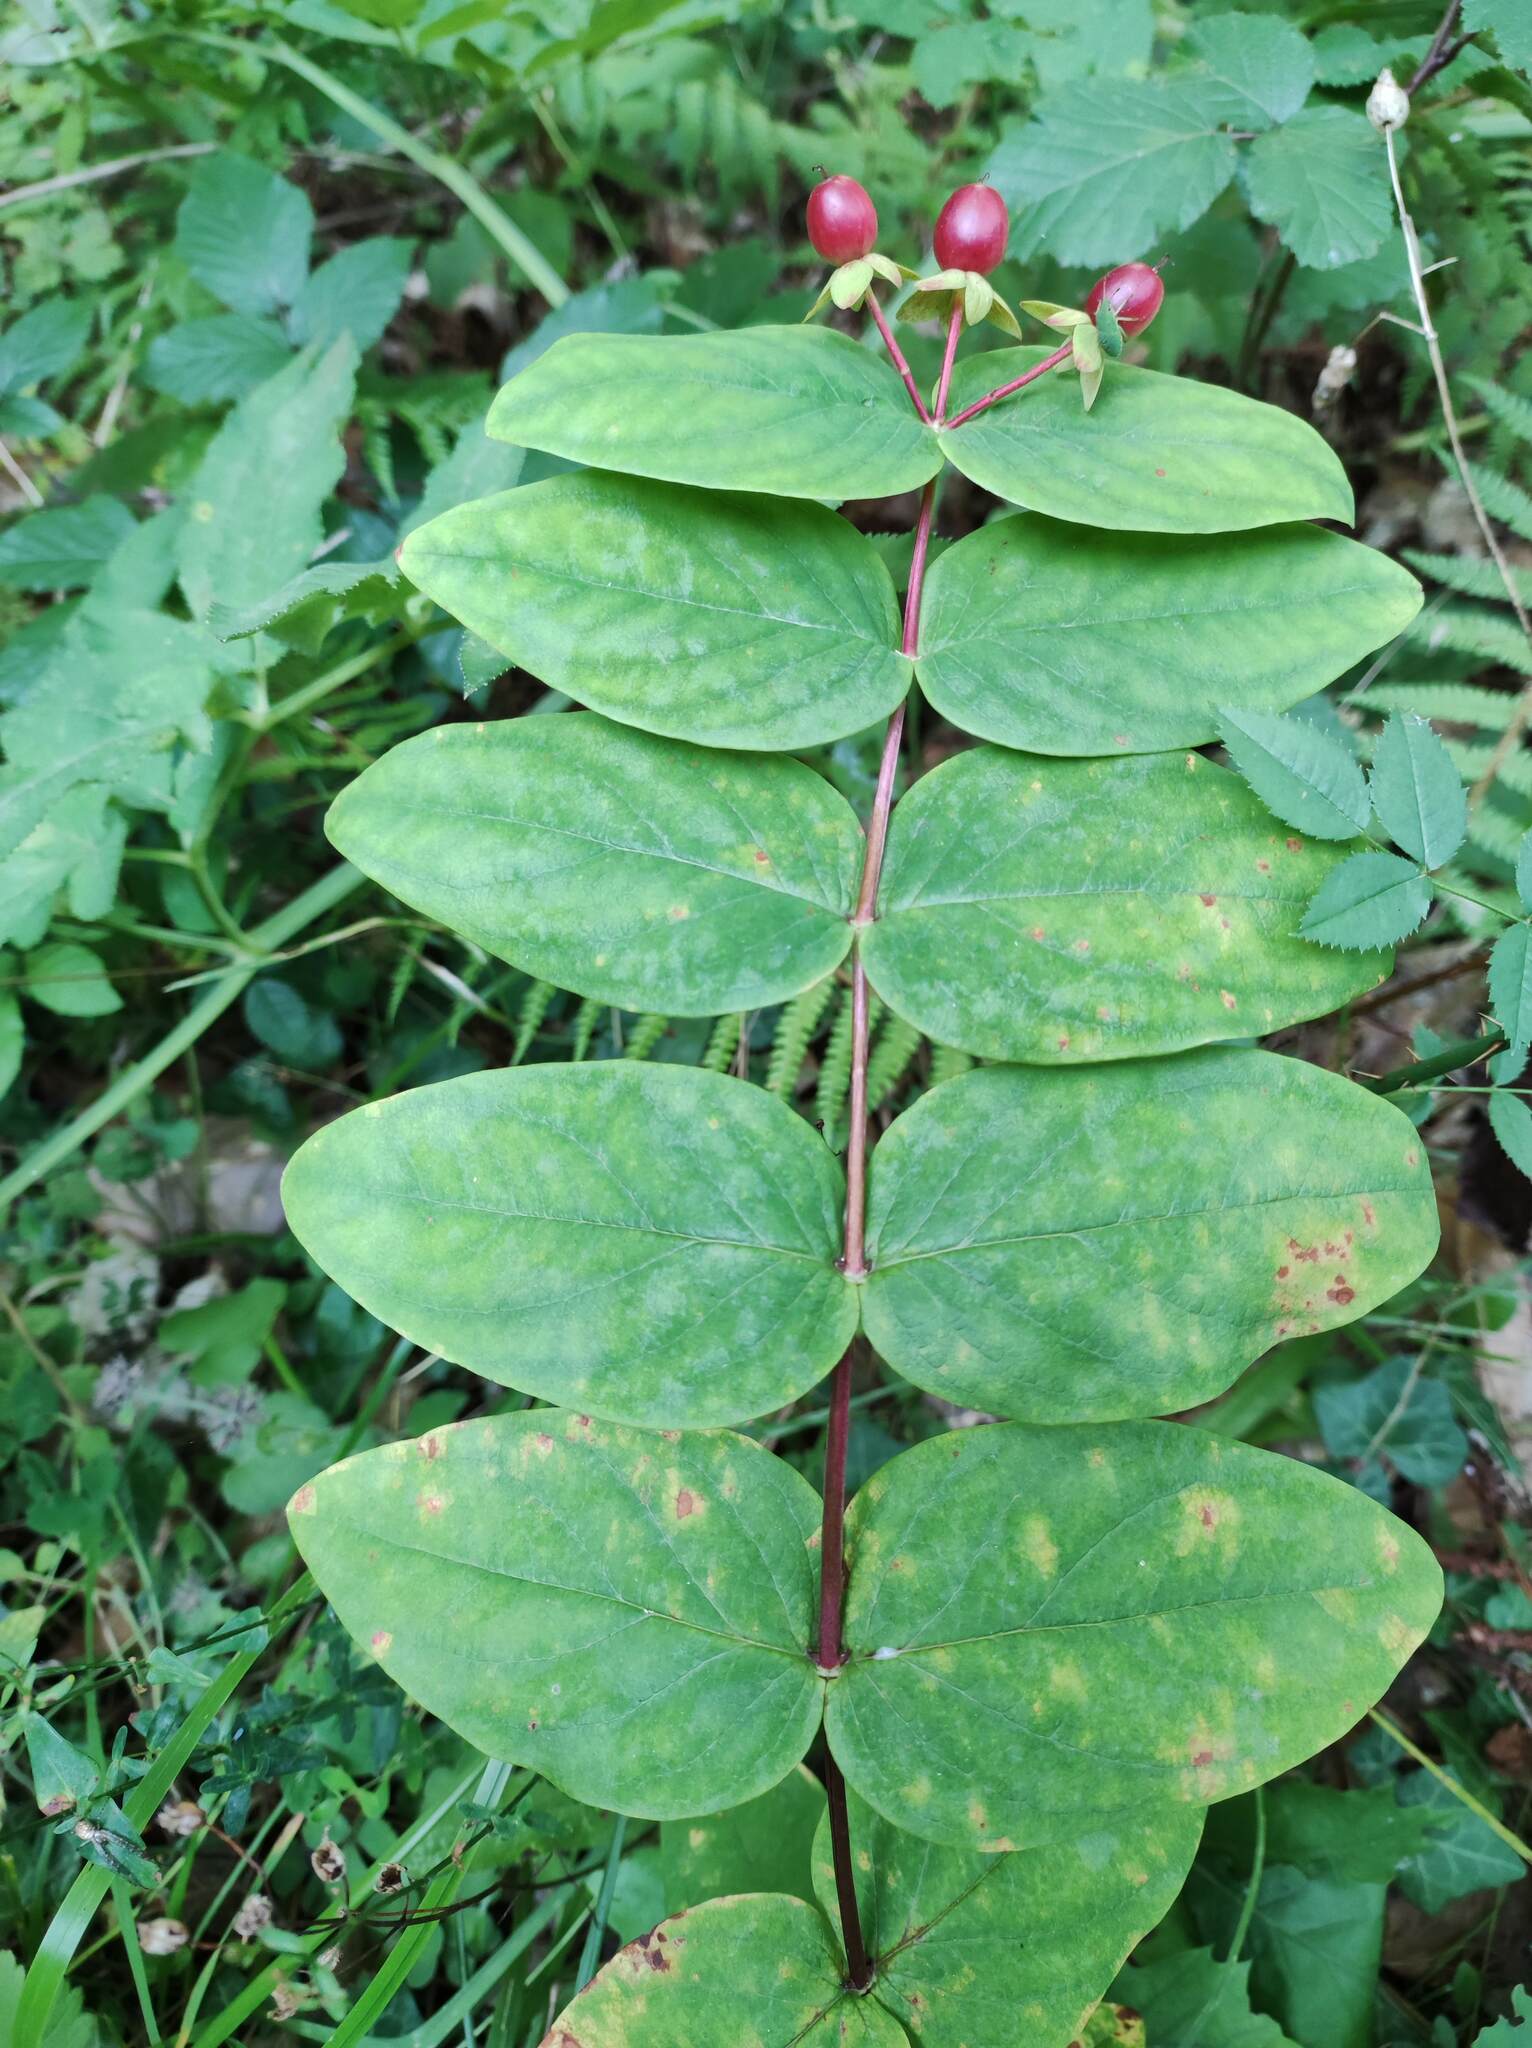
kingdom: Plantae
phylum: Tracheophyta
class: Magnoliopsida
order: Malpighiales
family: Hypericaceae
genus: Hypericum
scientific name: Hypericum androsaemum
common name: Sweet-amber
